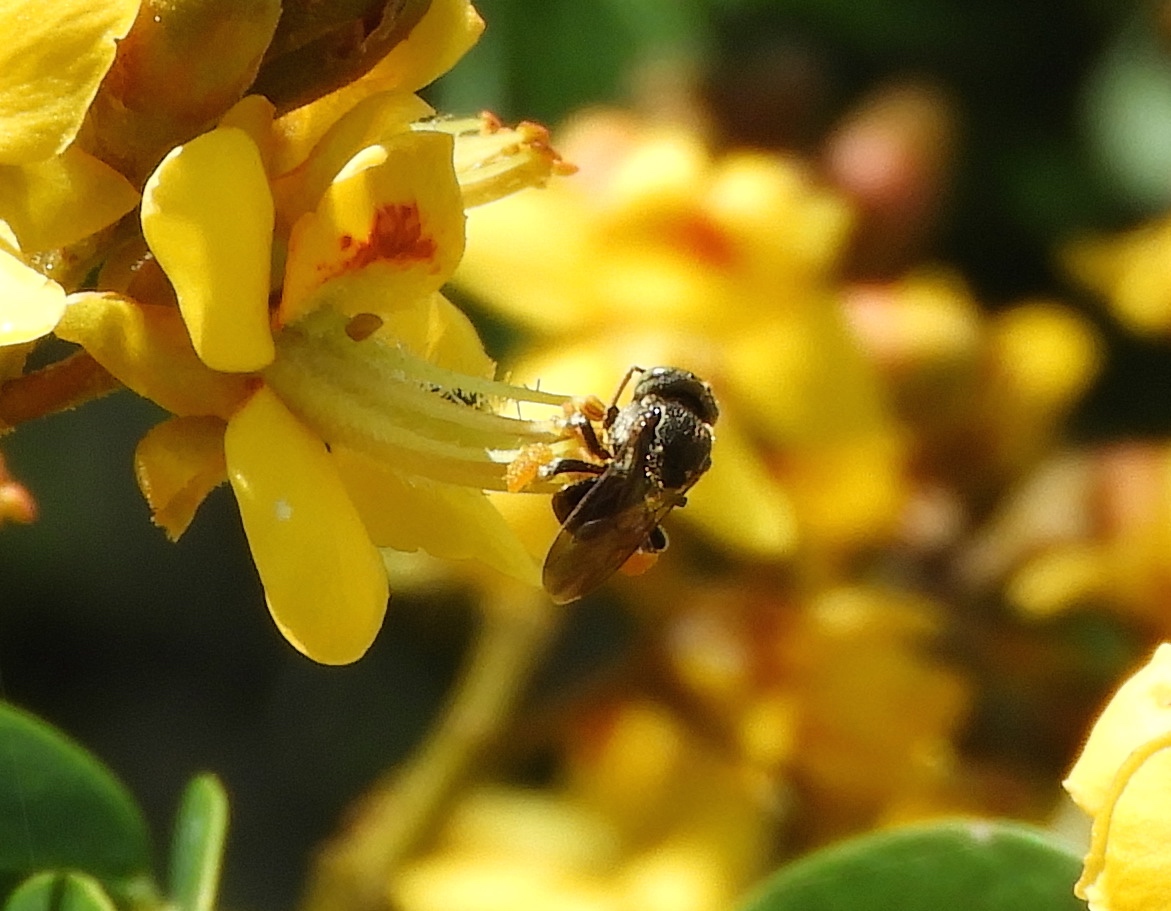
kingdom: Animalia
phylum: Arthropoda
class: Insecta
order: Hymenoptera
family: Apidae
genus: Nannotrigona
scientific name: Nannotrigona perilampoides
